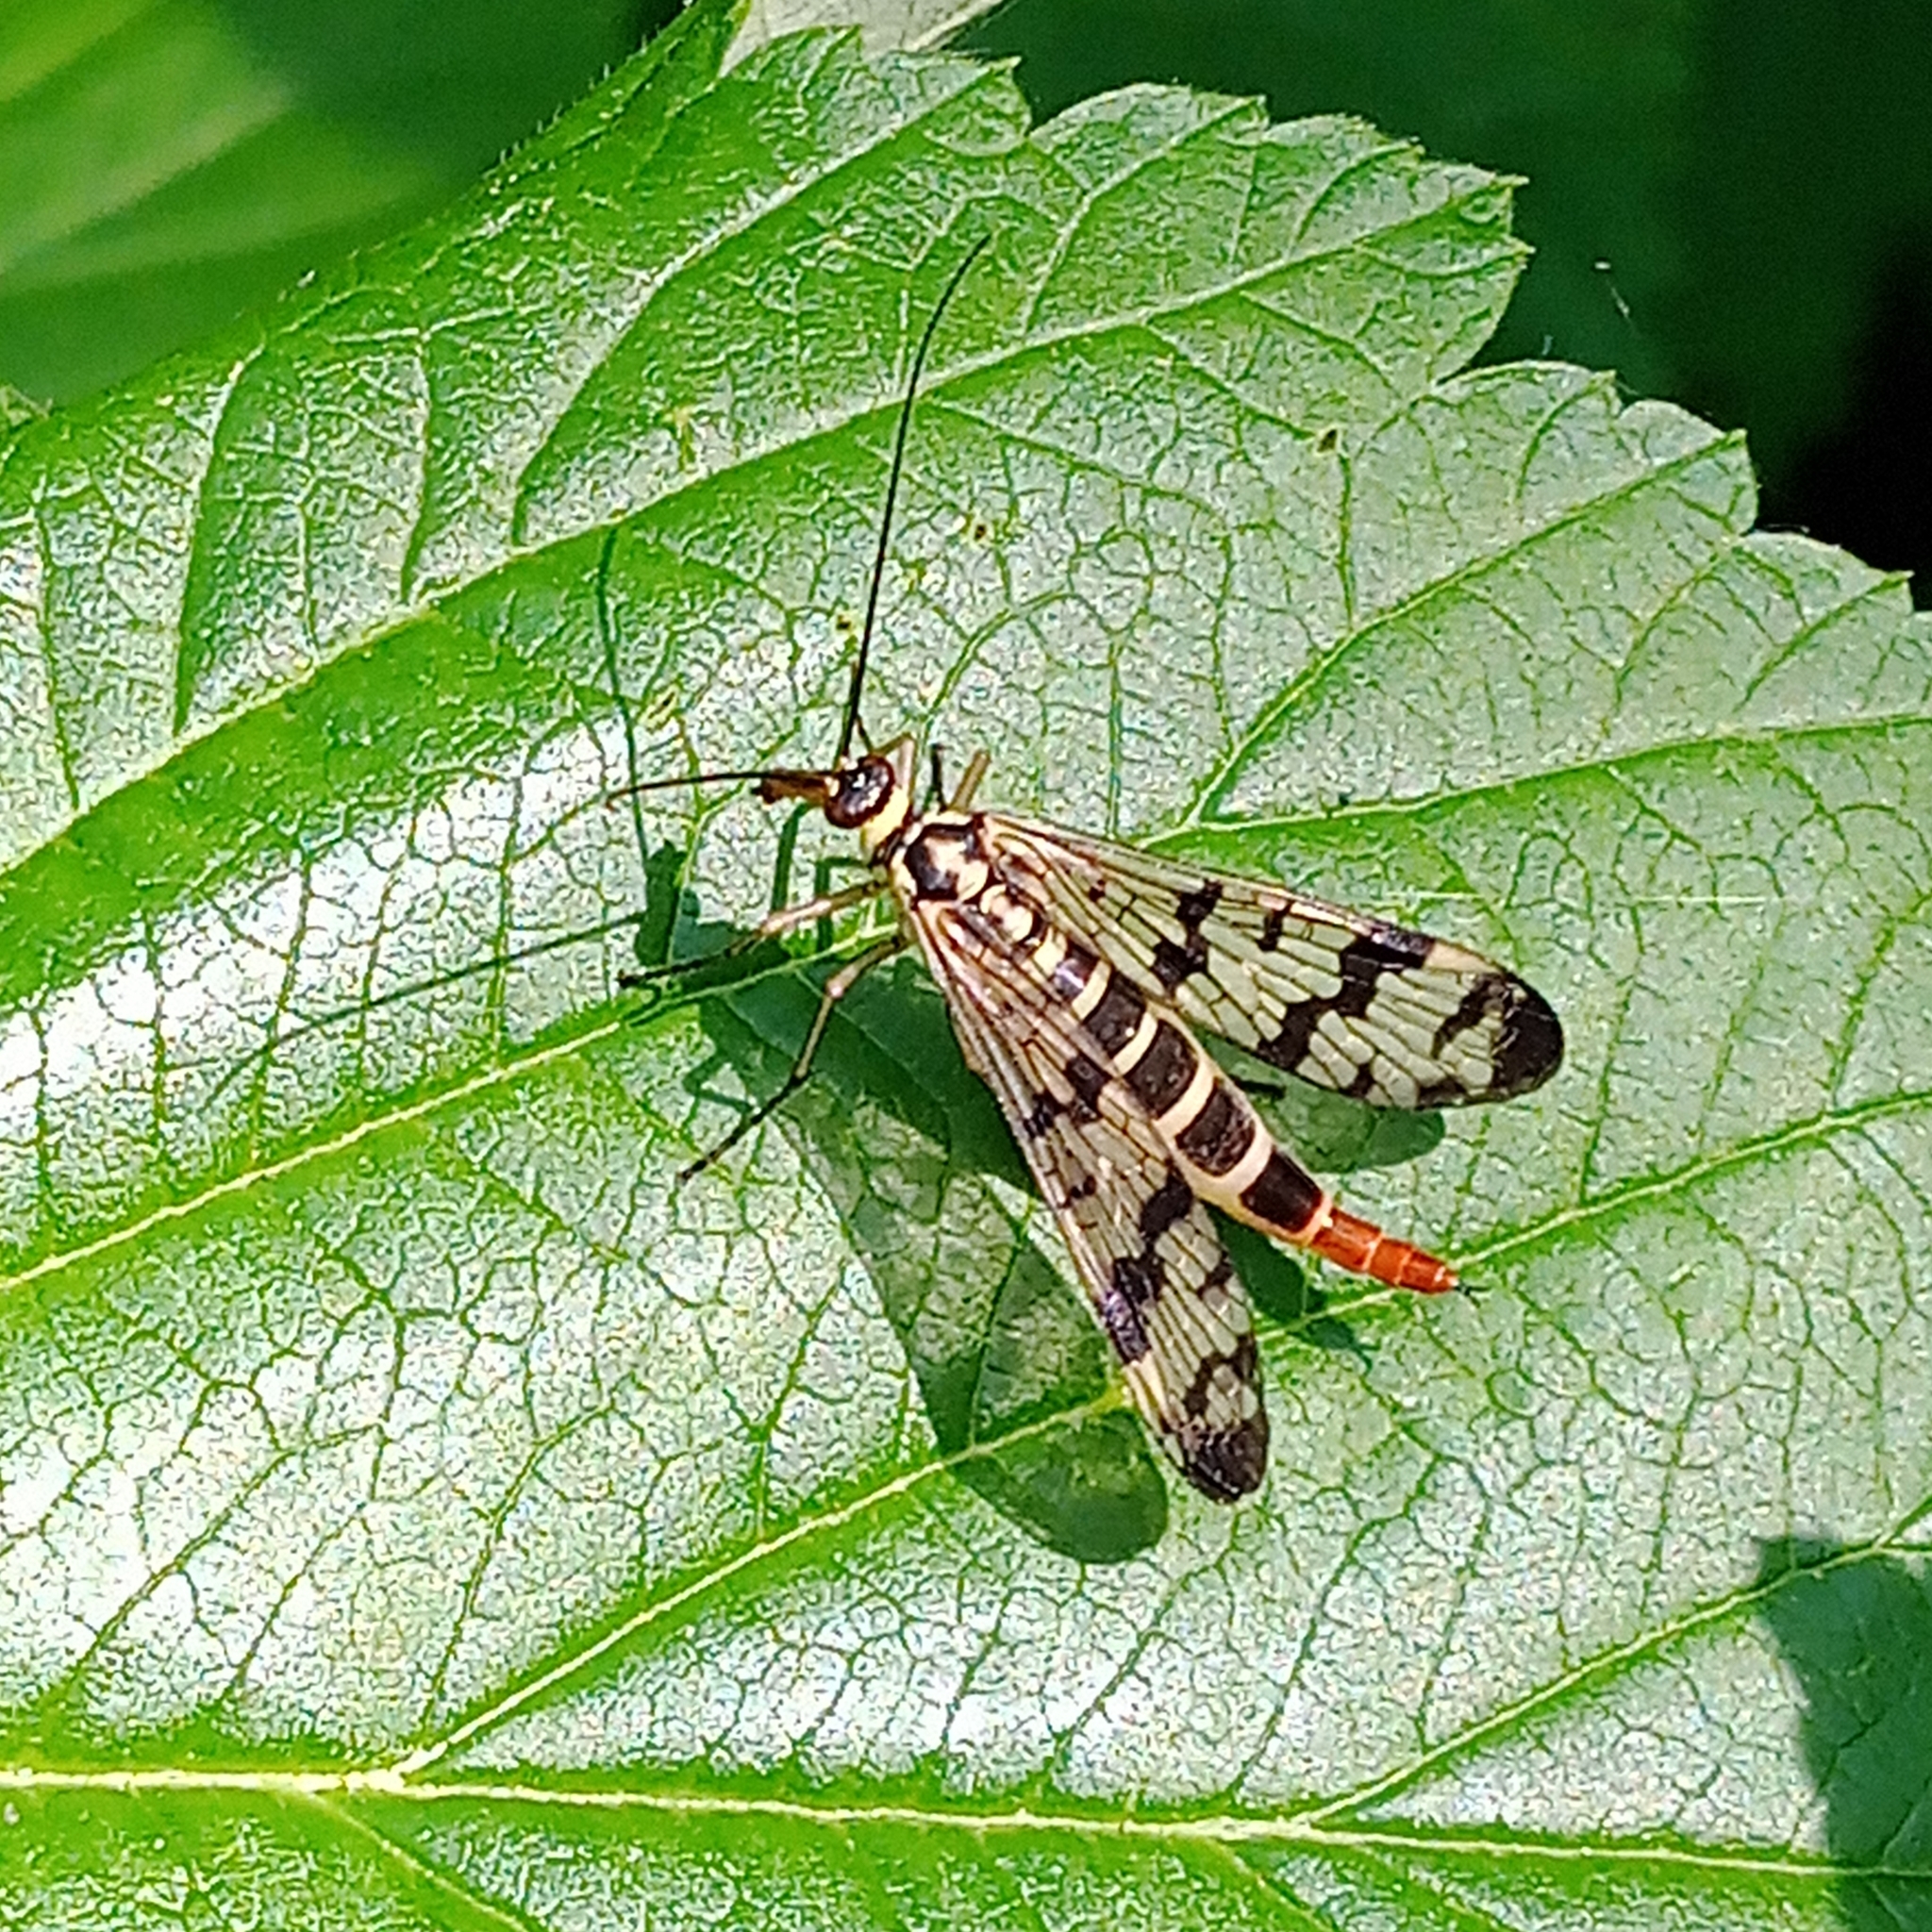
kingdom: Animalia
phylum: Arthropoda
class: Insecta
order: Mecoptera
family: Panorpidae
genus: Panorpa
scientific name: Panorpa communis
